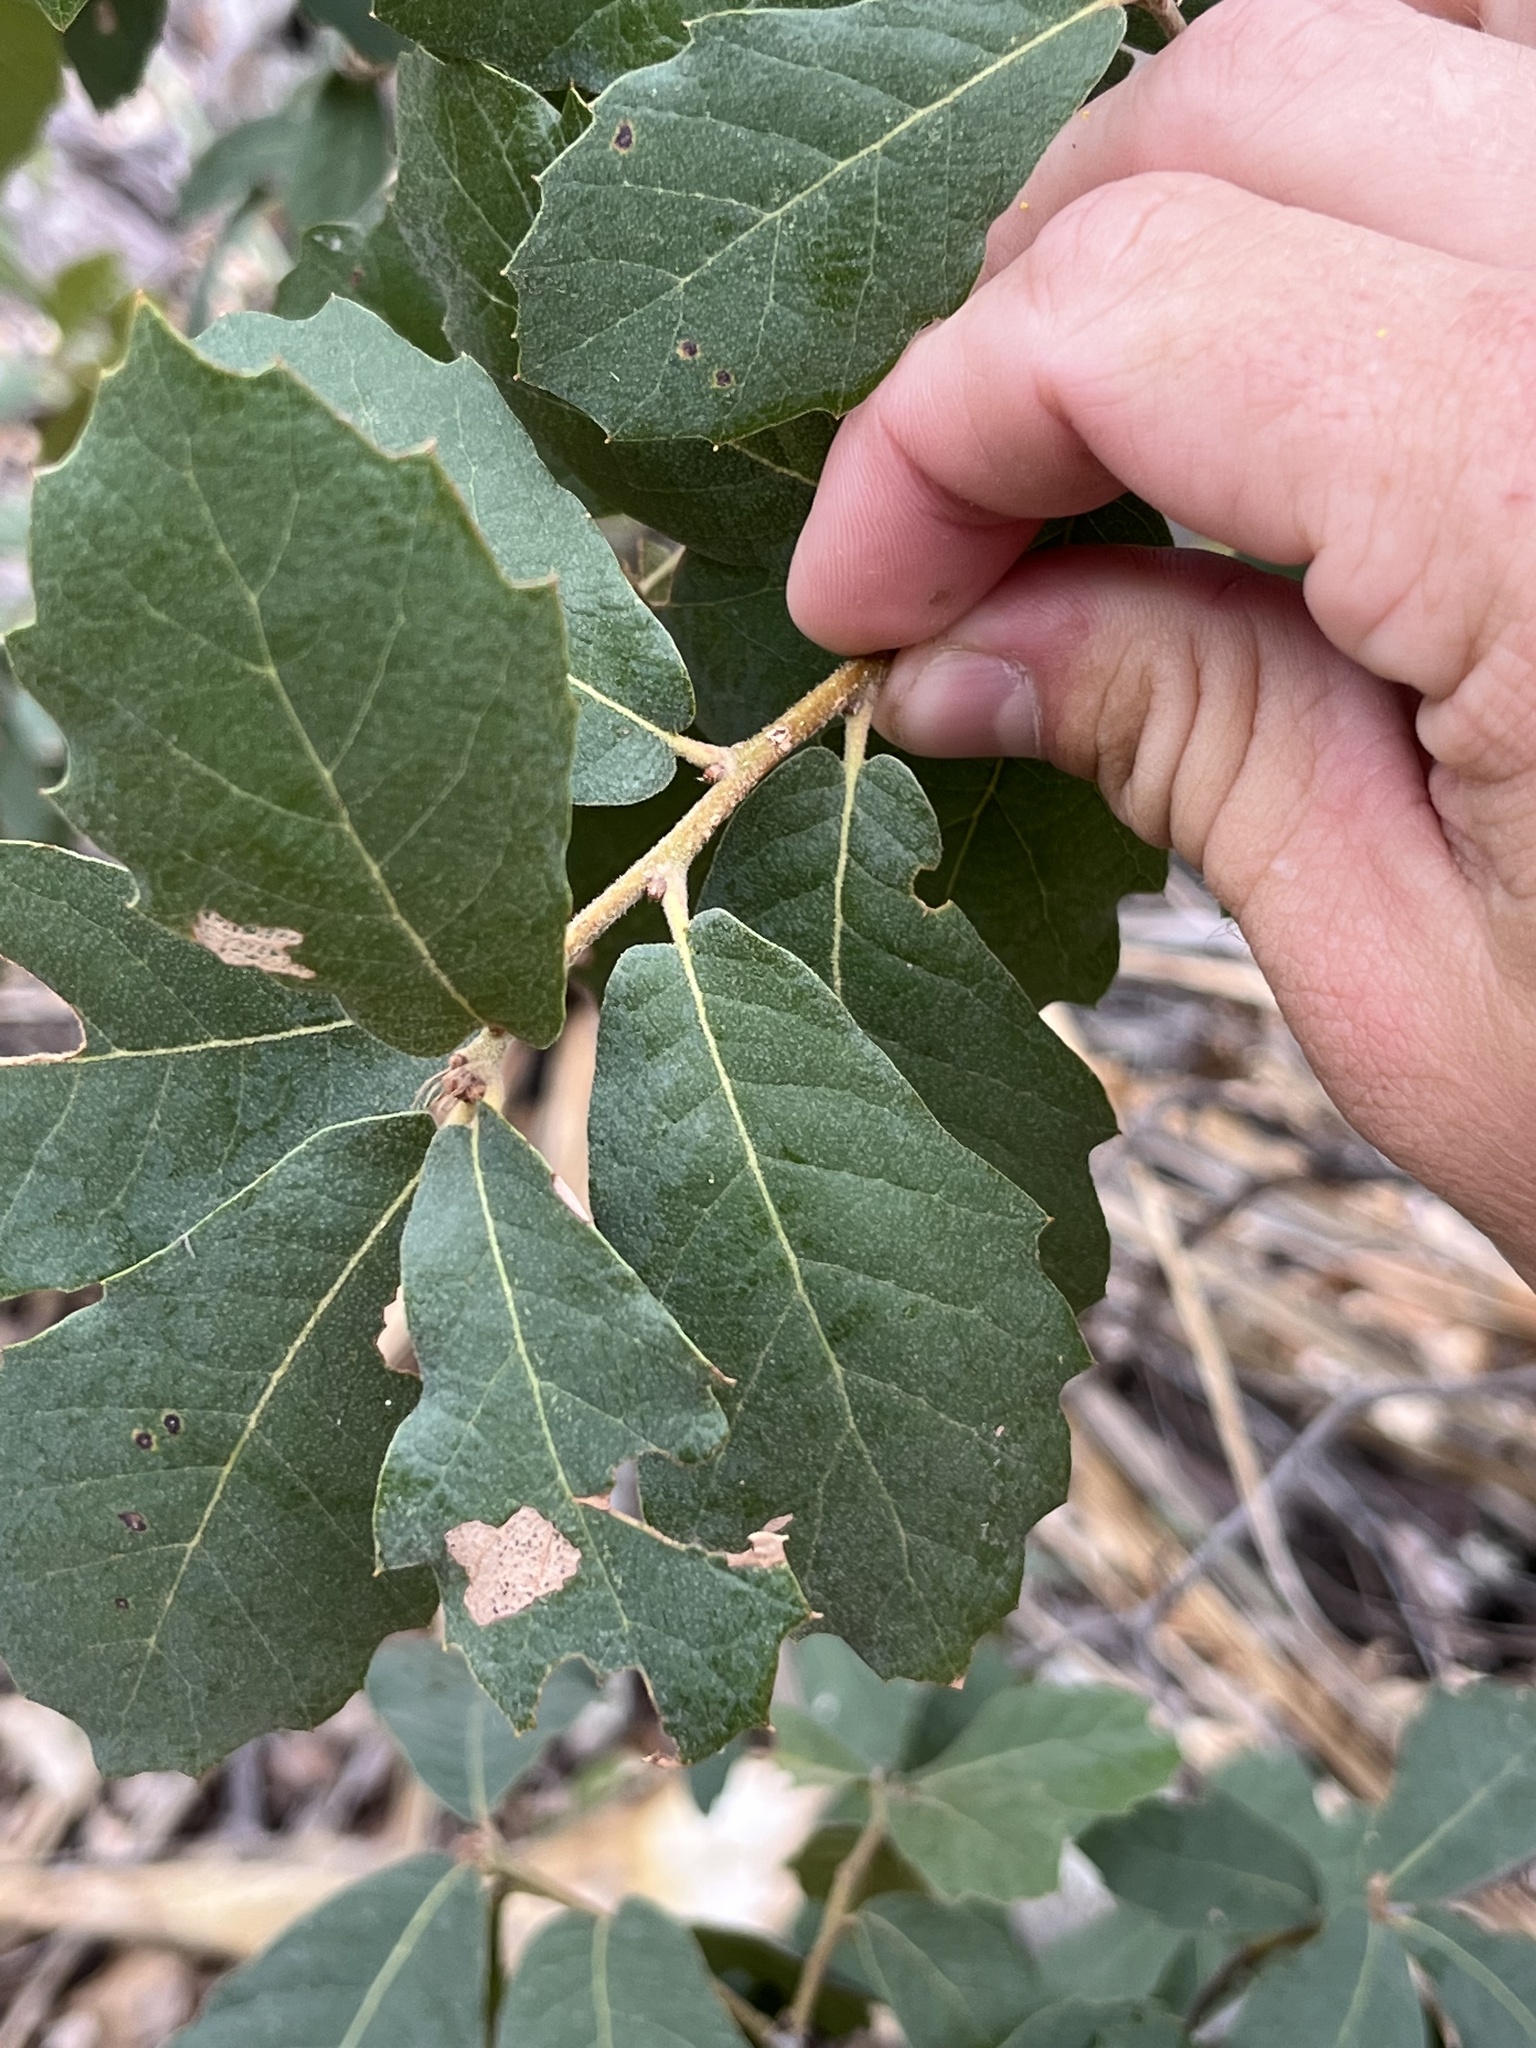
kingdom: Plantae
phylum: Tracheophyta
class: Magnoliopsida
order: Fagales
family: Fagaceae
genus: Quercus
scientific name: Quercus arizonica
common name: Arizona white oak
